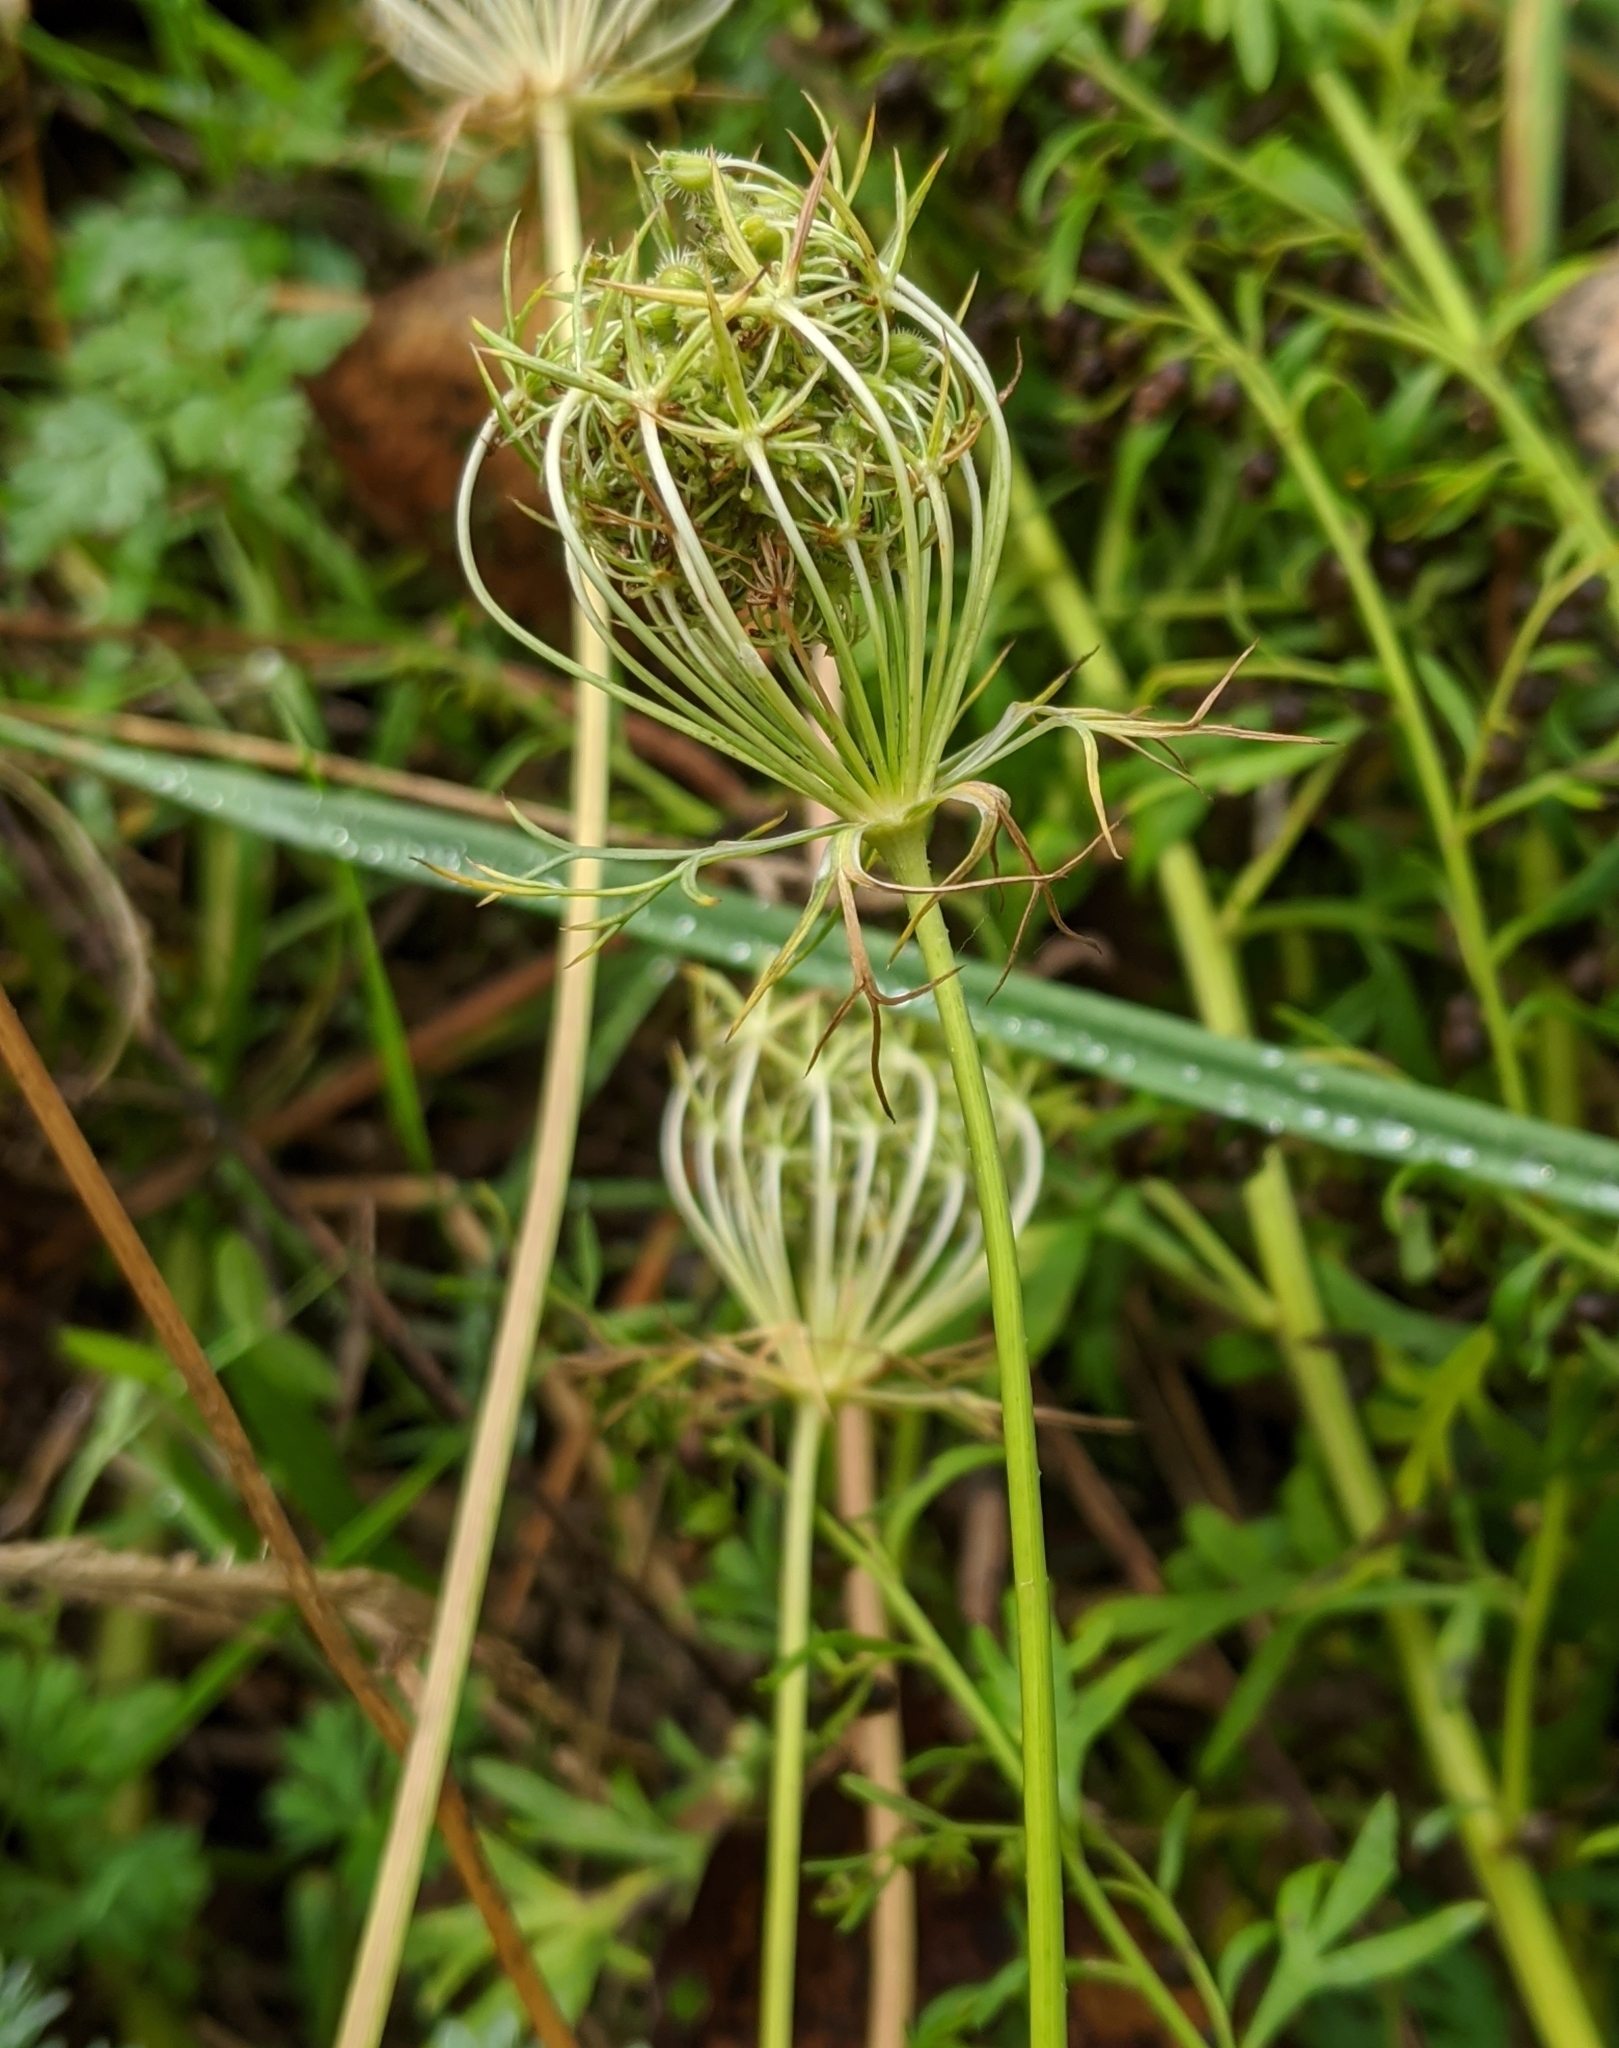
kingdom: Plantae
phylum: Tracheophyta
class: Magnoliopsida
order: Apiales
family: Apiaceae
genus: Daucus
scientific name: Daucus carota
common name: Wild carrot
